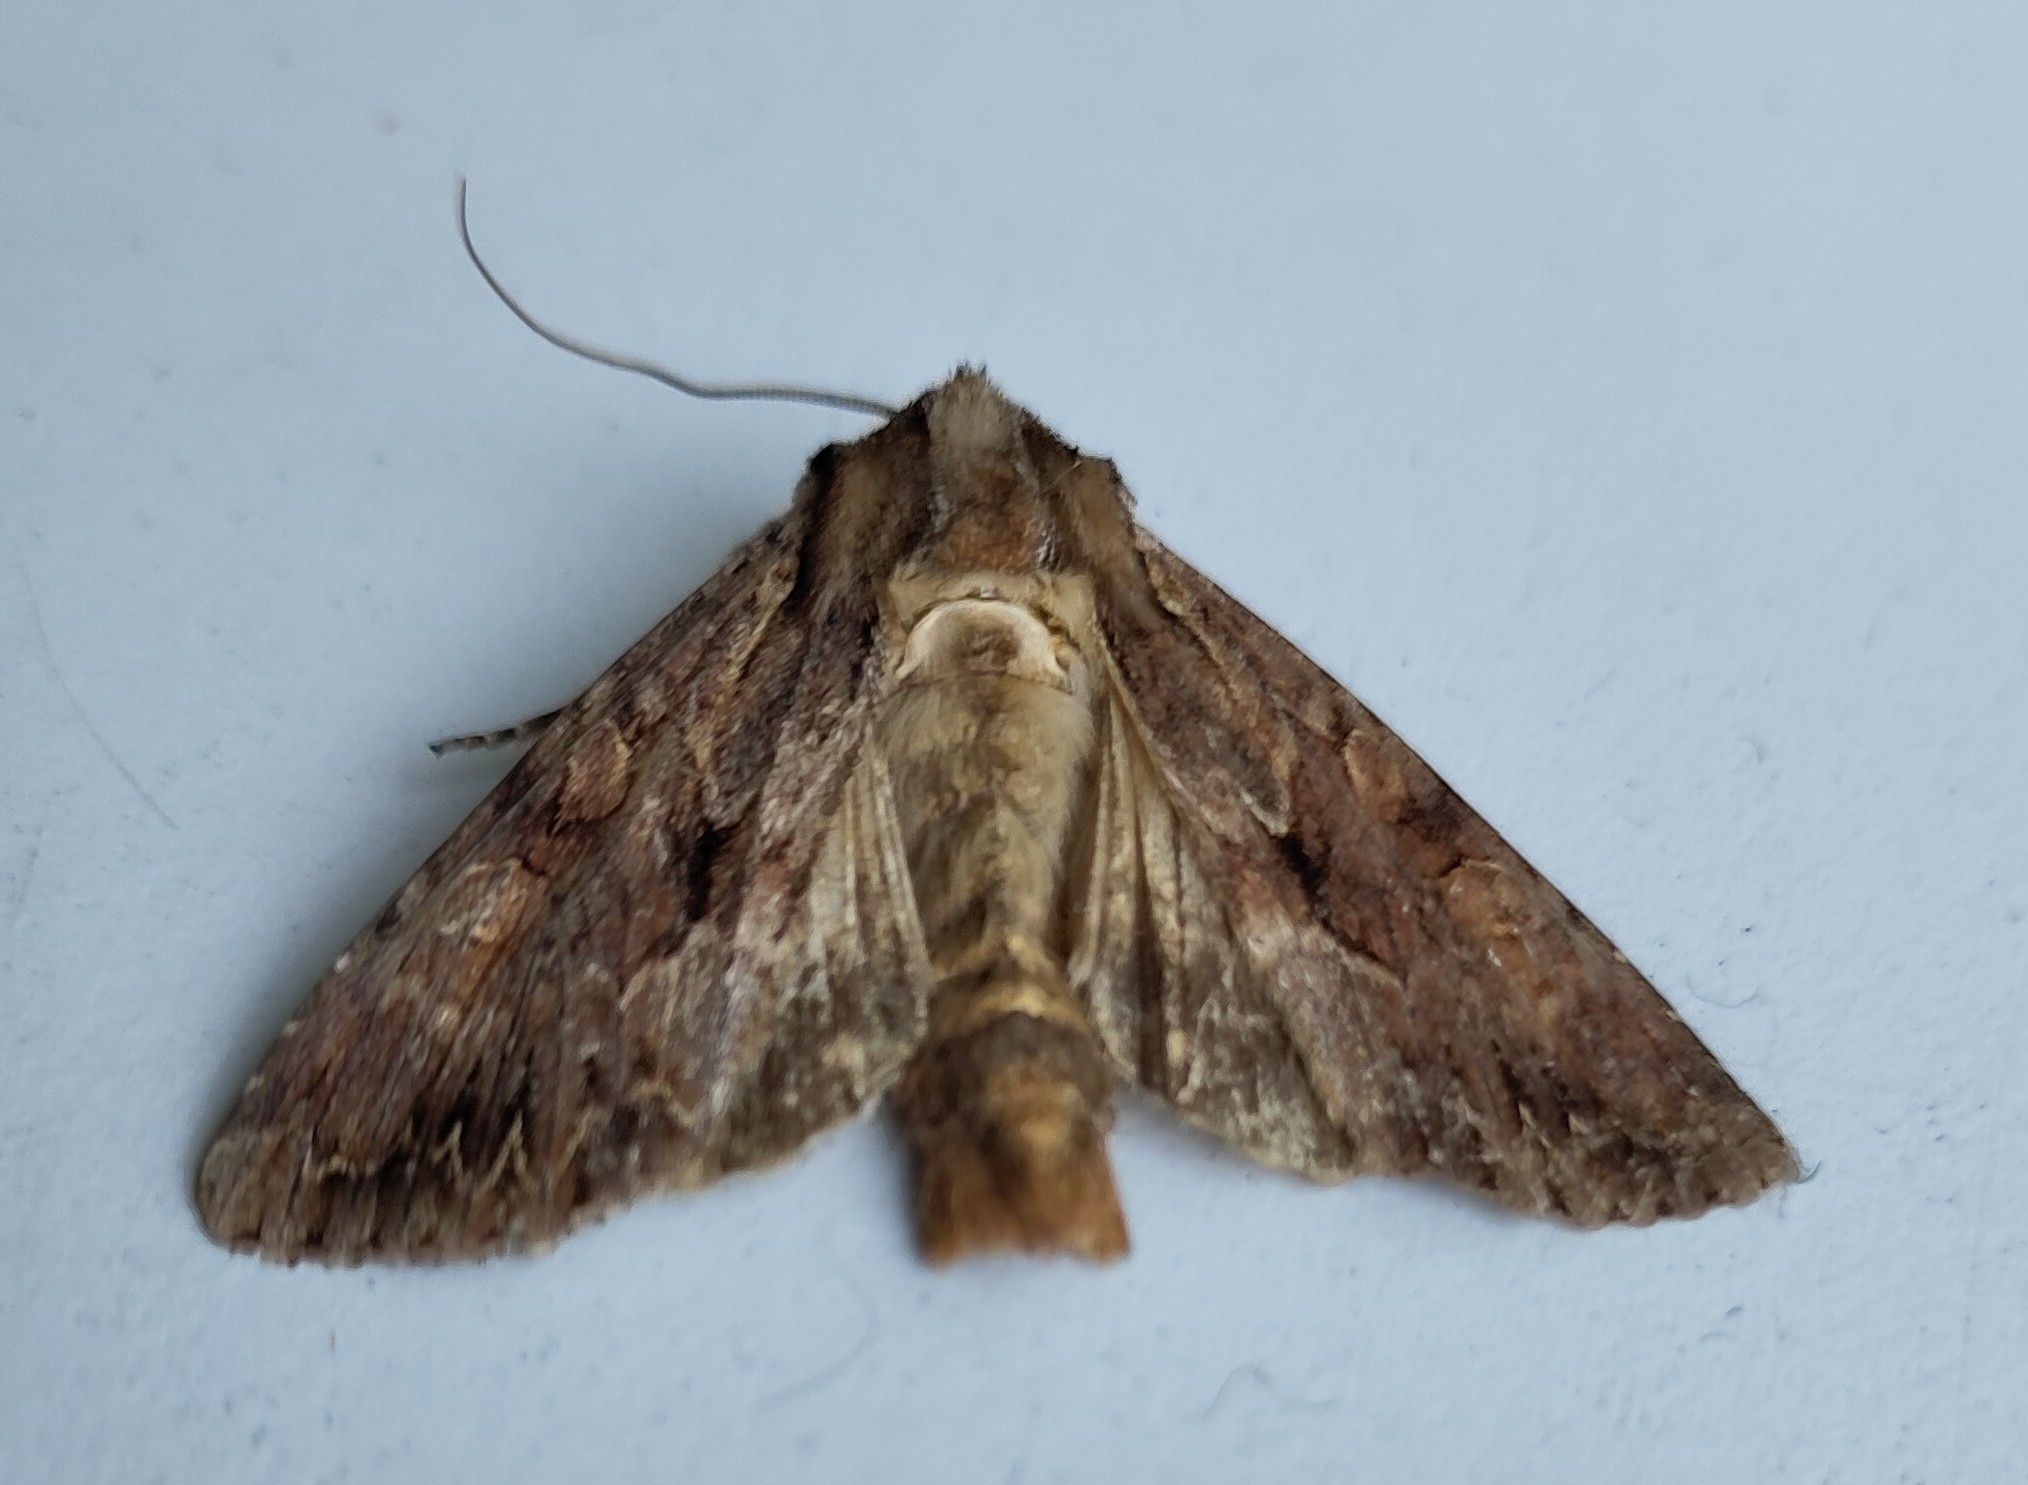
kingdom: Animalia
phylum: Arthropoda
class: Insecta
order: Lepidoptera
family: Noctuidae
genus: Apamea
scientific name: Apamea monoglypha
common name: Dark arches
